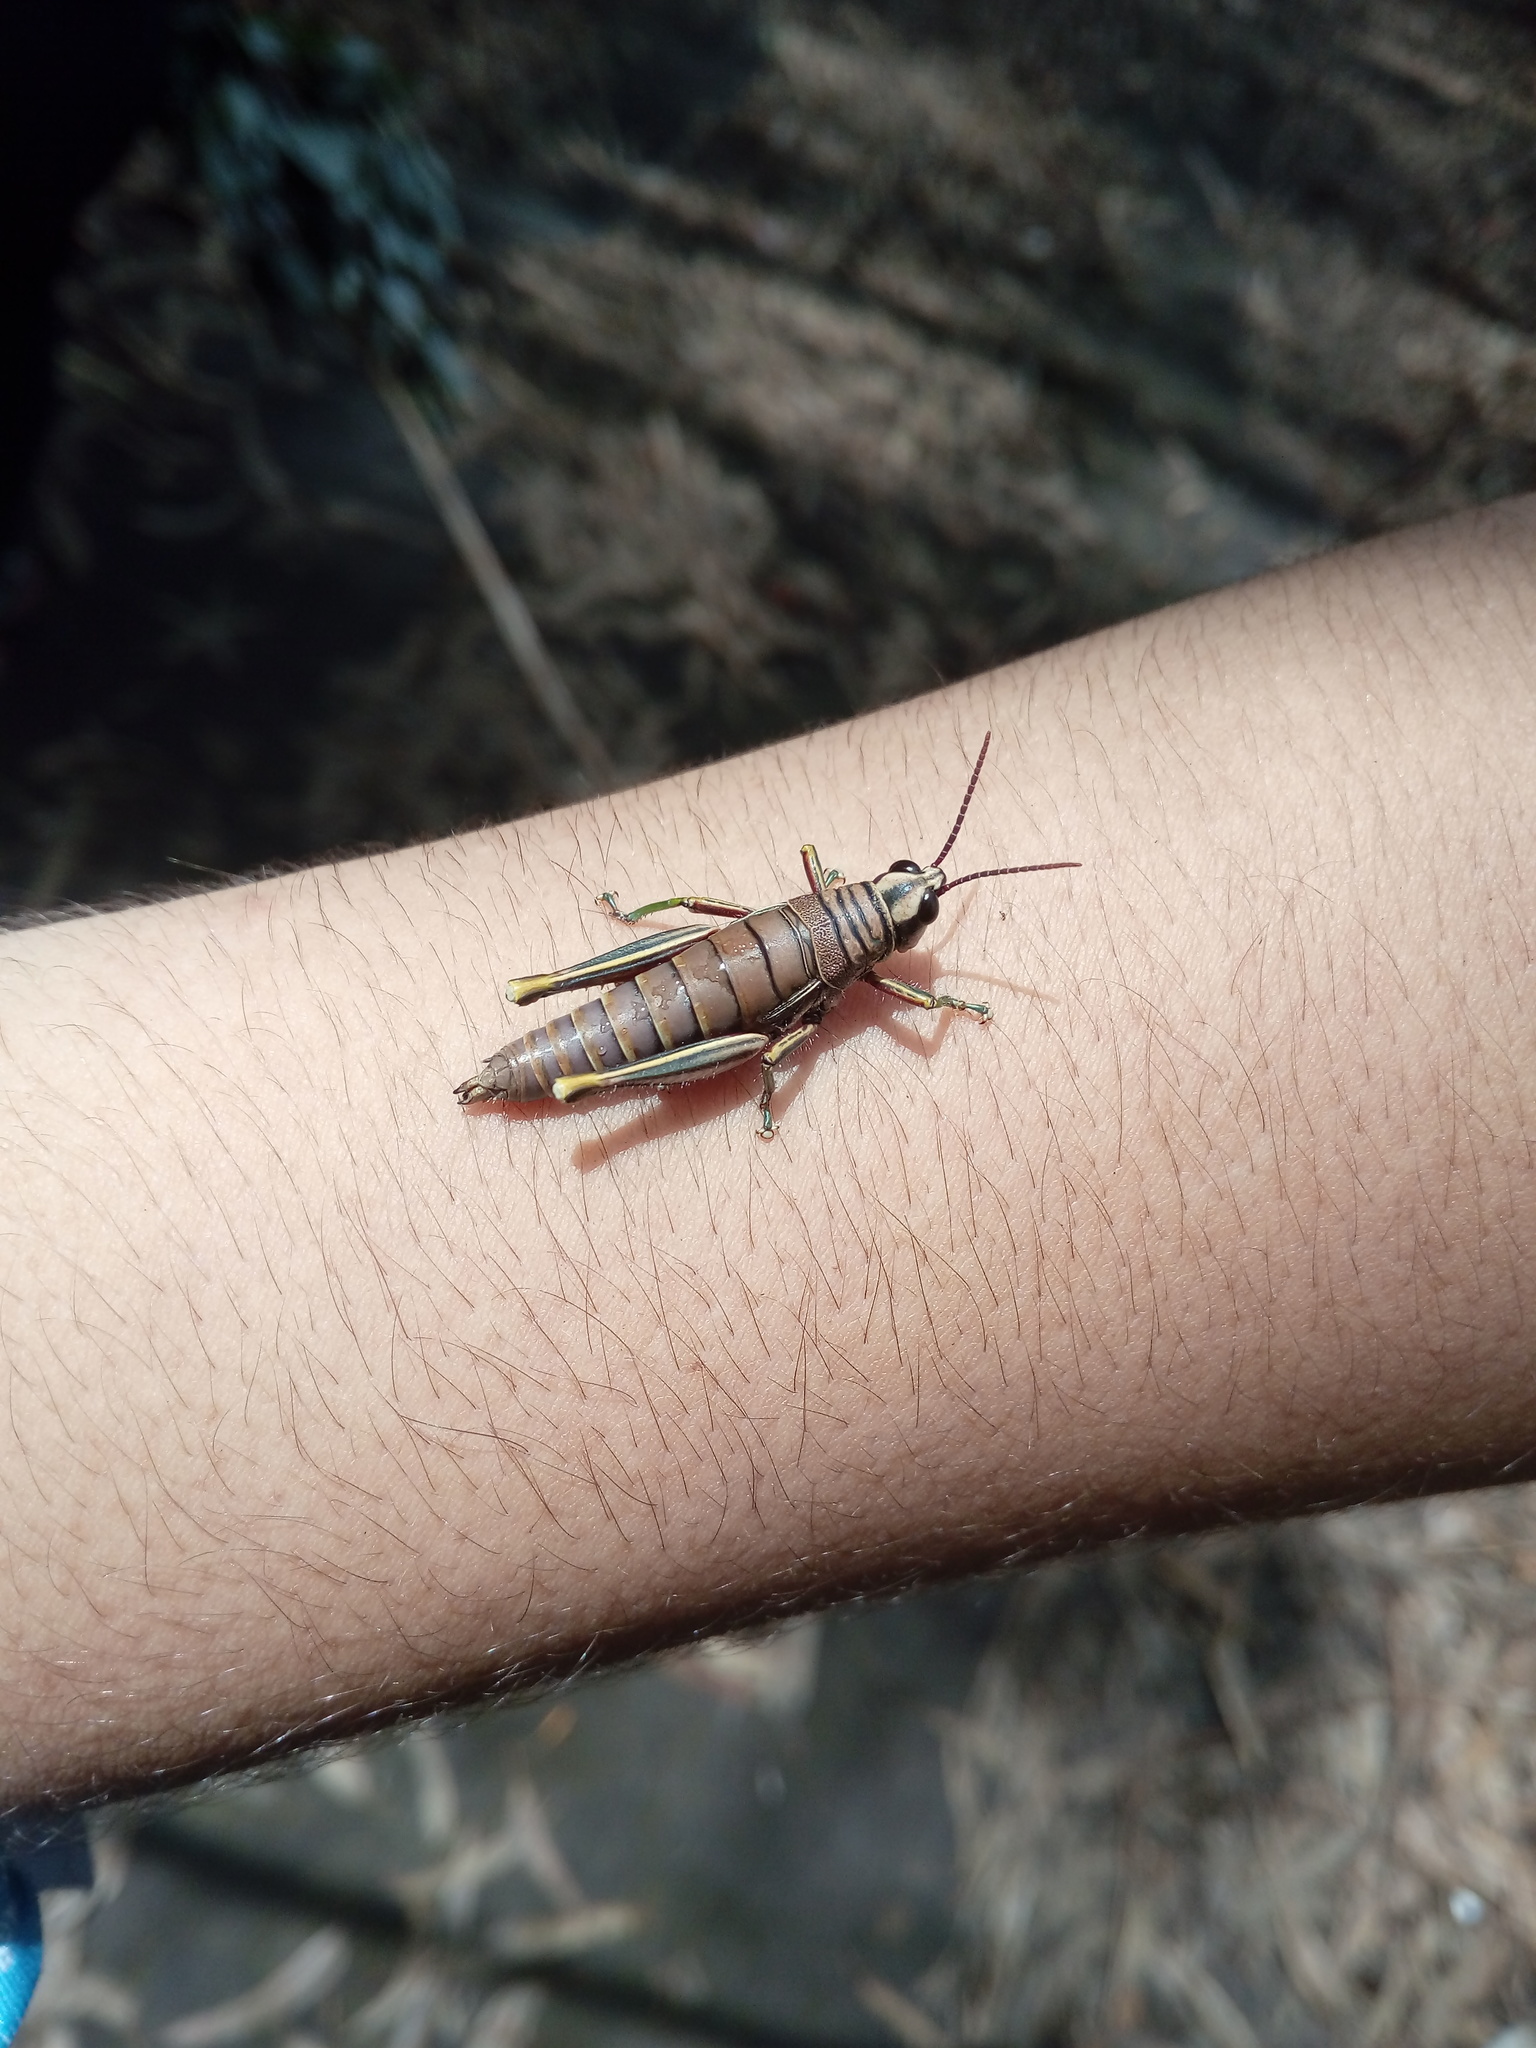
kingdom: Animalia
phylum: Arthropoda
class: Insecta
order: Orthoptera
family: Acrididae
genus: Agesander
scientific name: Agesander ruficornis
